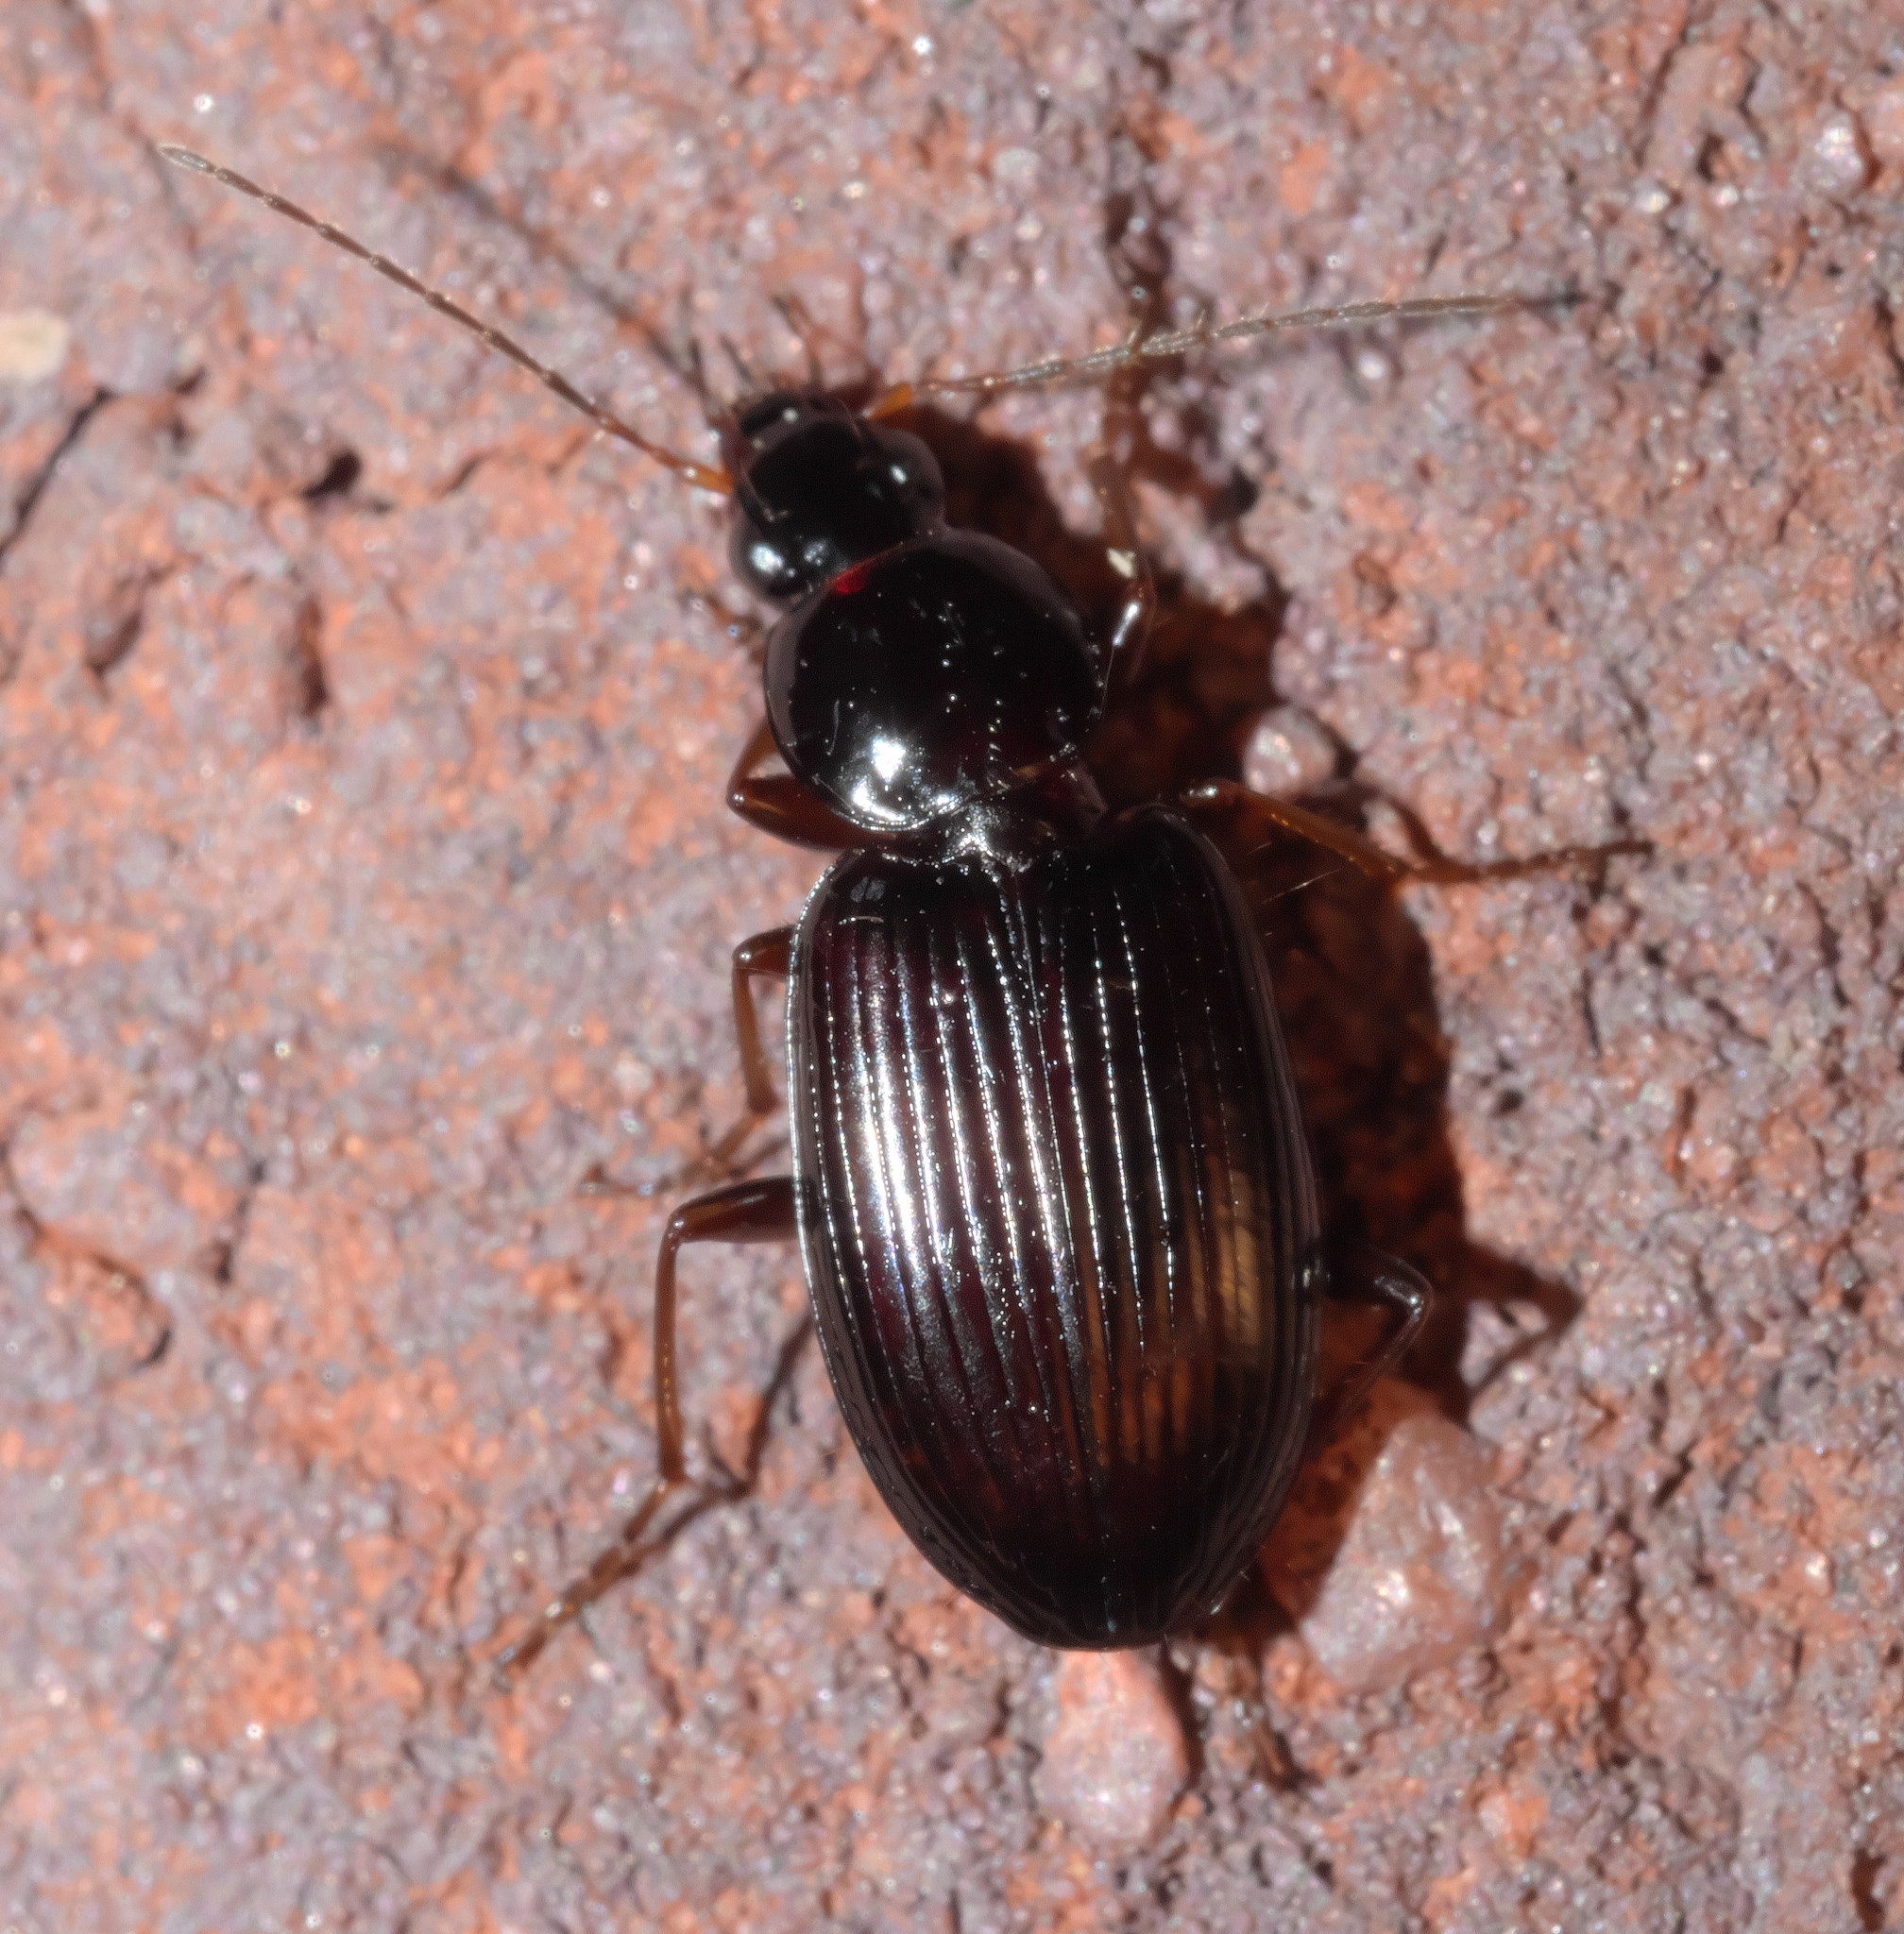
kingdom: Animalia
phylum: Arthropoda
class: Insecta
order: Coleoptera
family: Carabidae
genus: Agonum
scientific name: Agonum punctiforme
